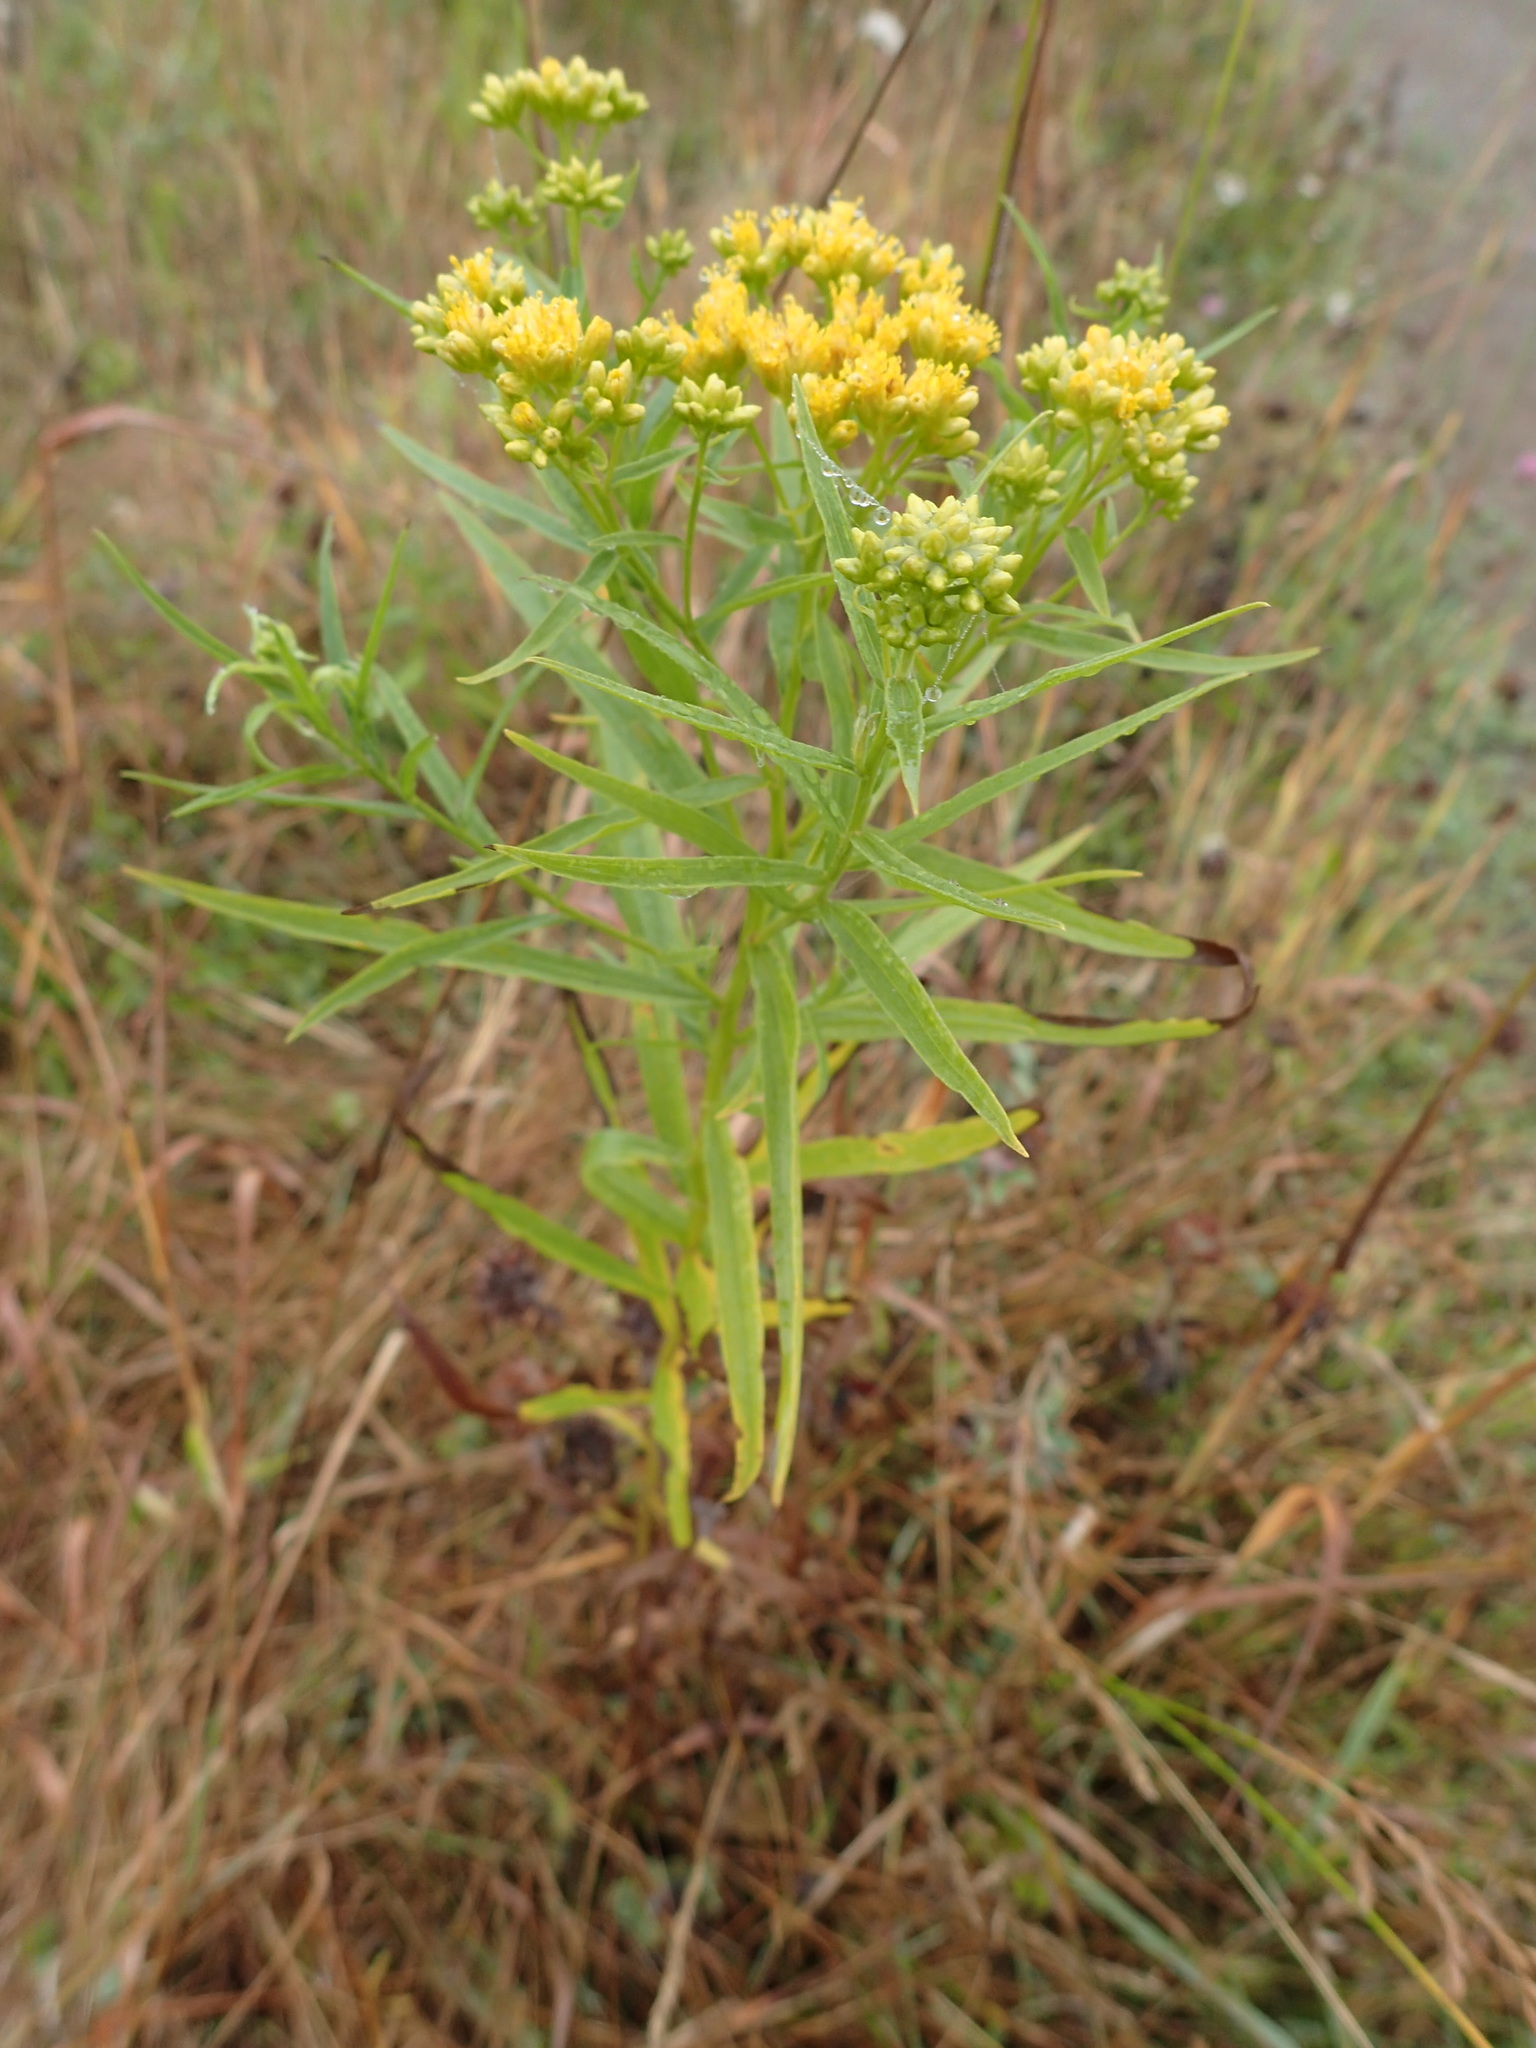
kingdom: Plantae
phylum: Tracheophyta
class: Magnoliopsida
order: Asterales
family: Asteraceae
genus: Euthamia
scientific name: Euthamia graminifolia
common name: Common goldentop
